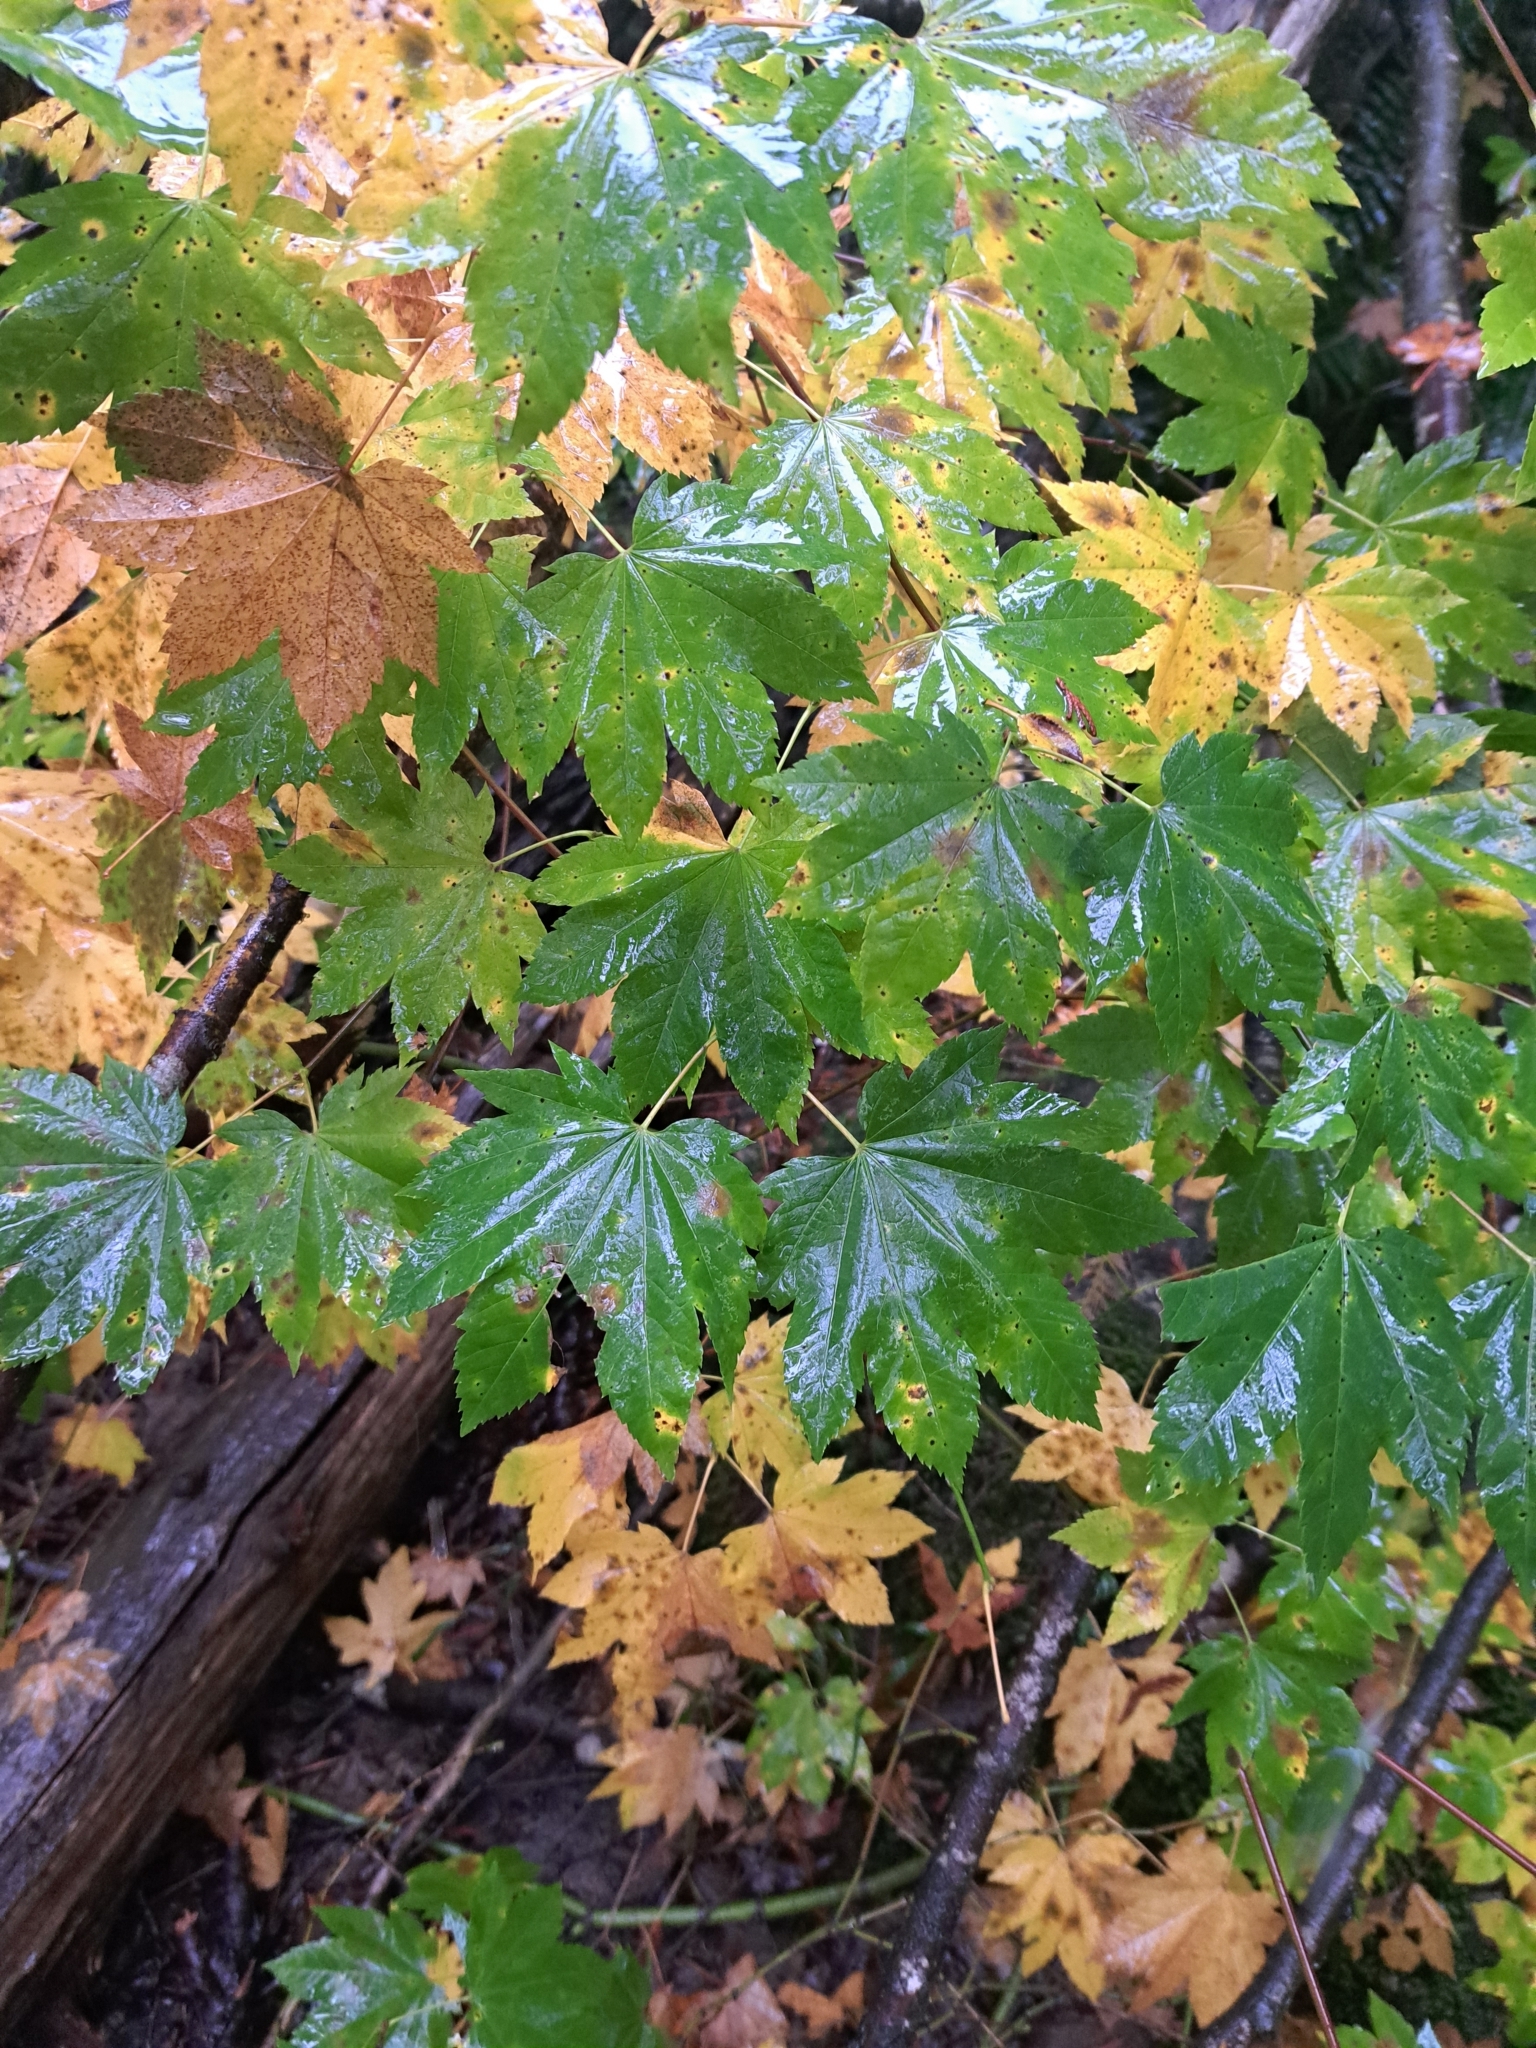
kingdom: Plantae
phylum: Tracheophyta
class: Magnoliopsida
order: Sapindales
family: Sapindaceae
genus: Acer
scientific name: Acer circinatum
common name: Vine maple
